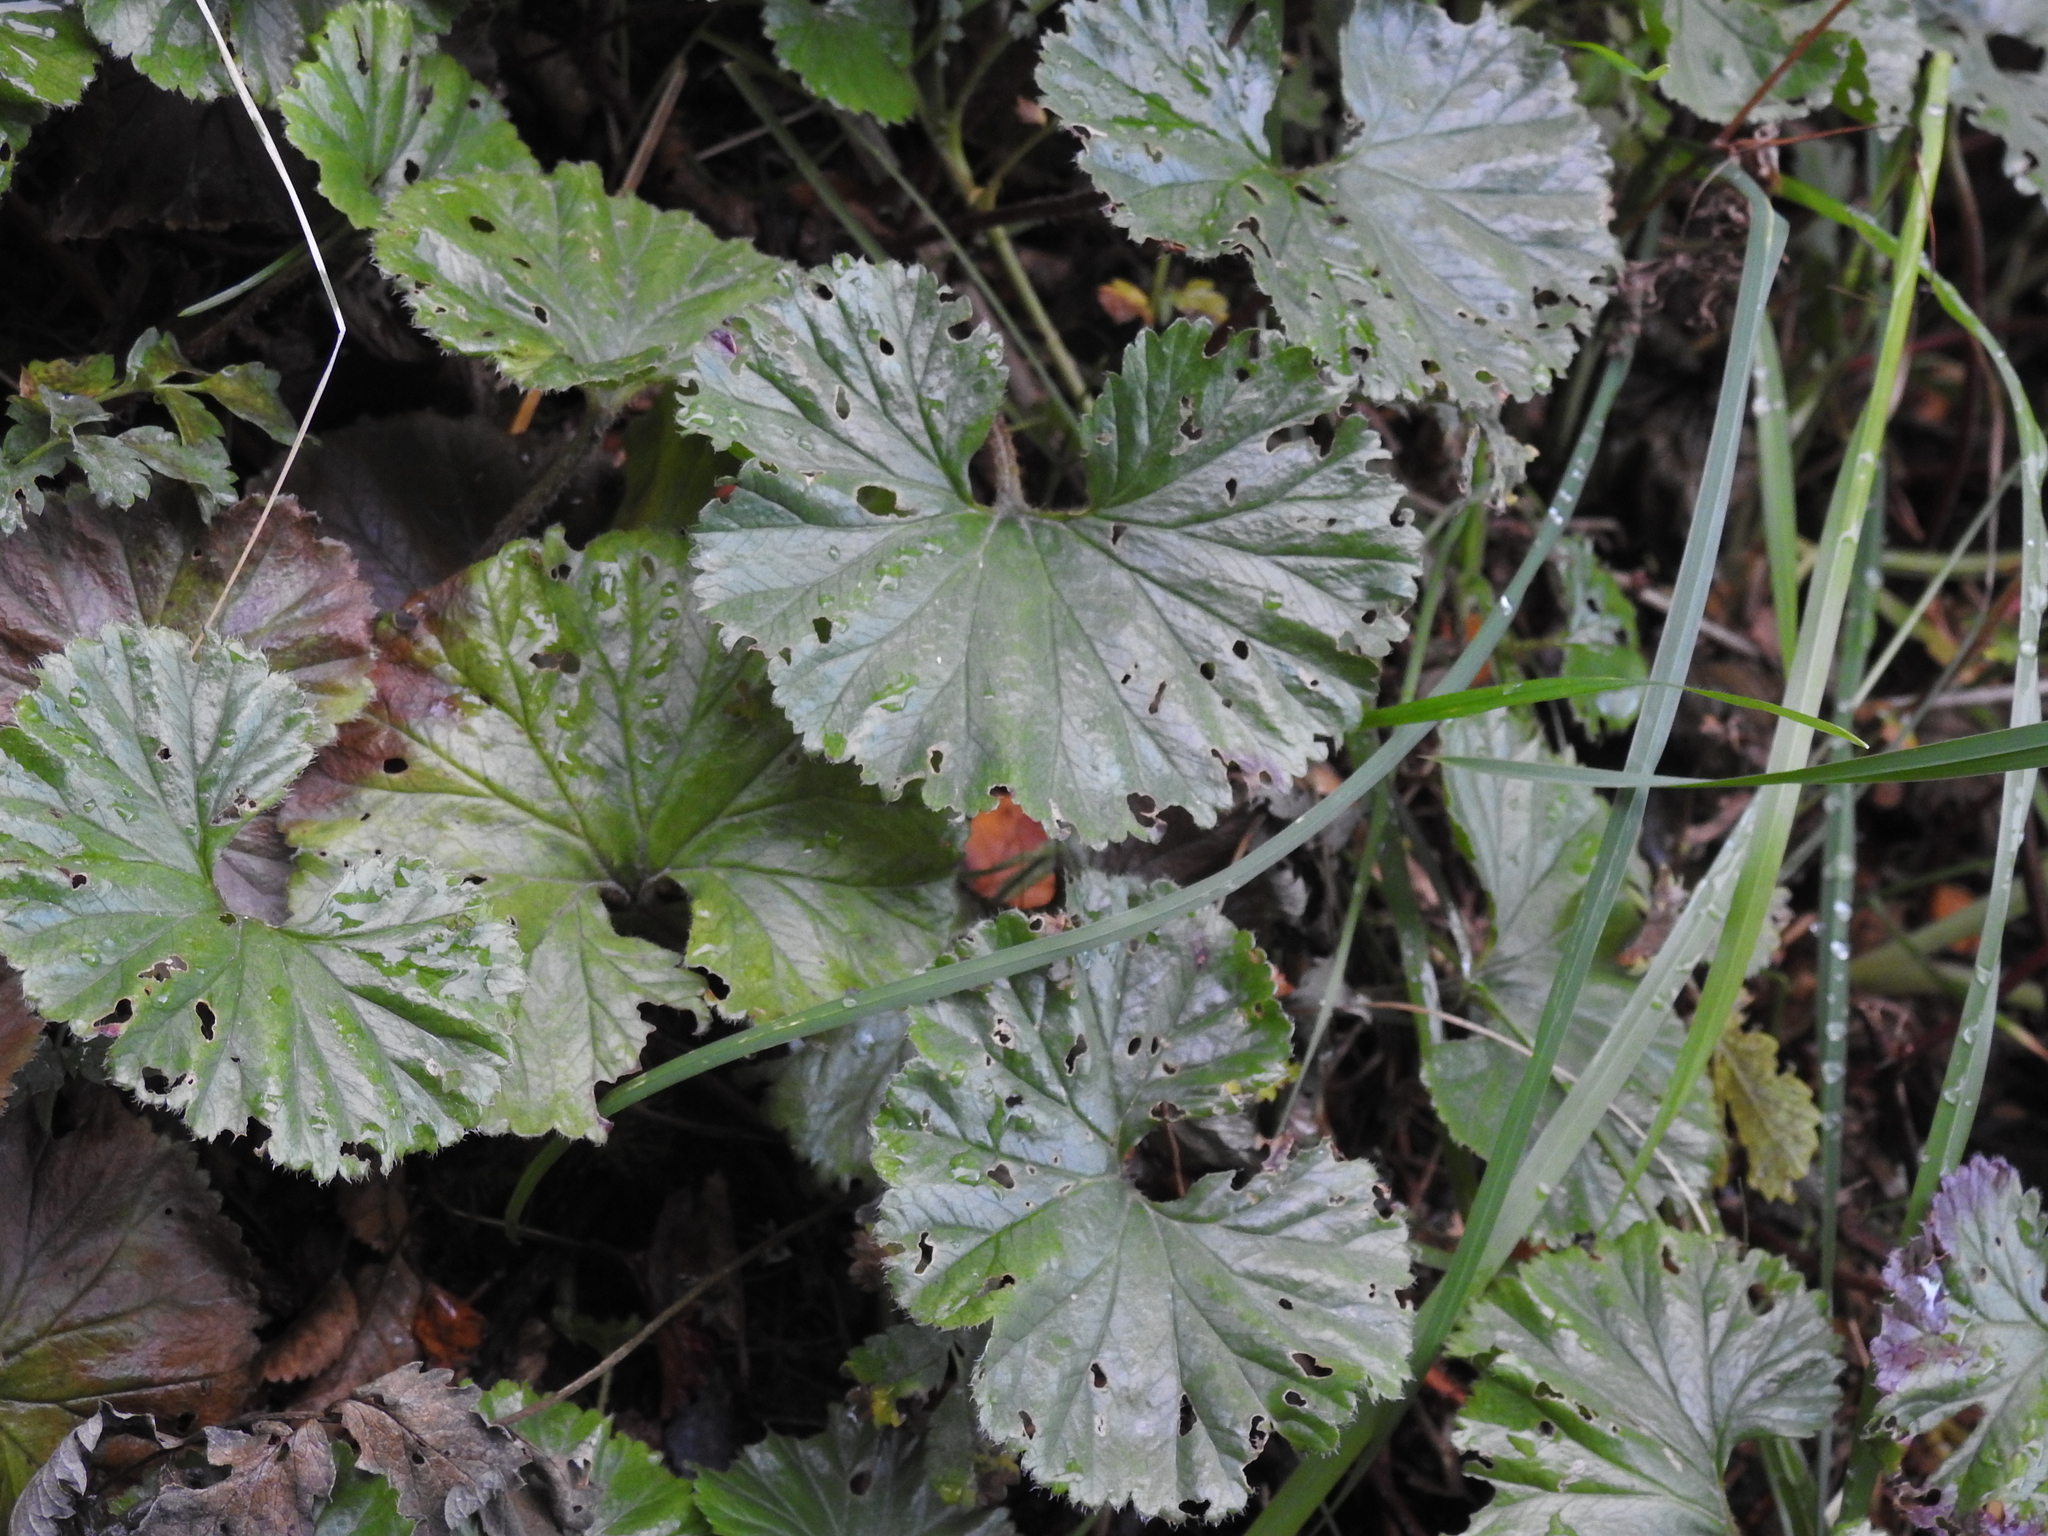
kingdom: Plantae
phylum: Tracheophyta
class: Magnoliopsida
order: Gunnerales
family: Gunneraceae
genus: Gunnera
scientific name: Gunnera magellanica
